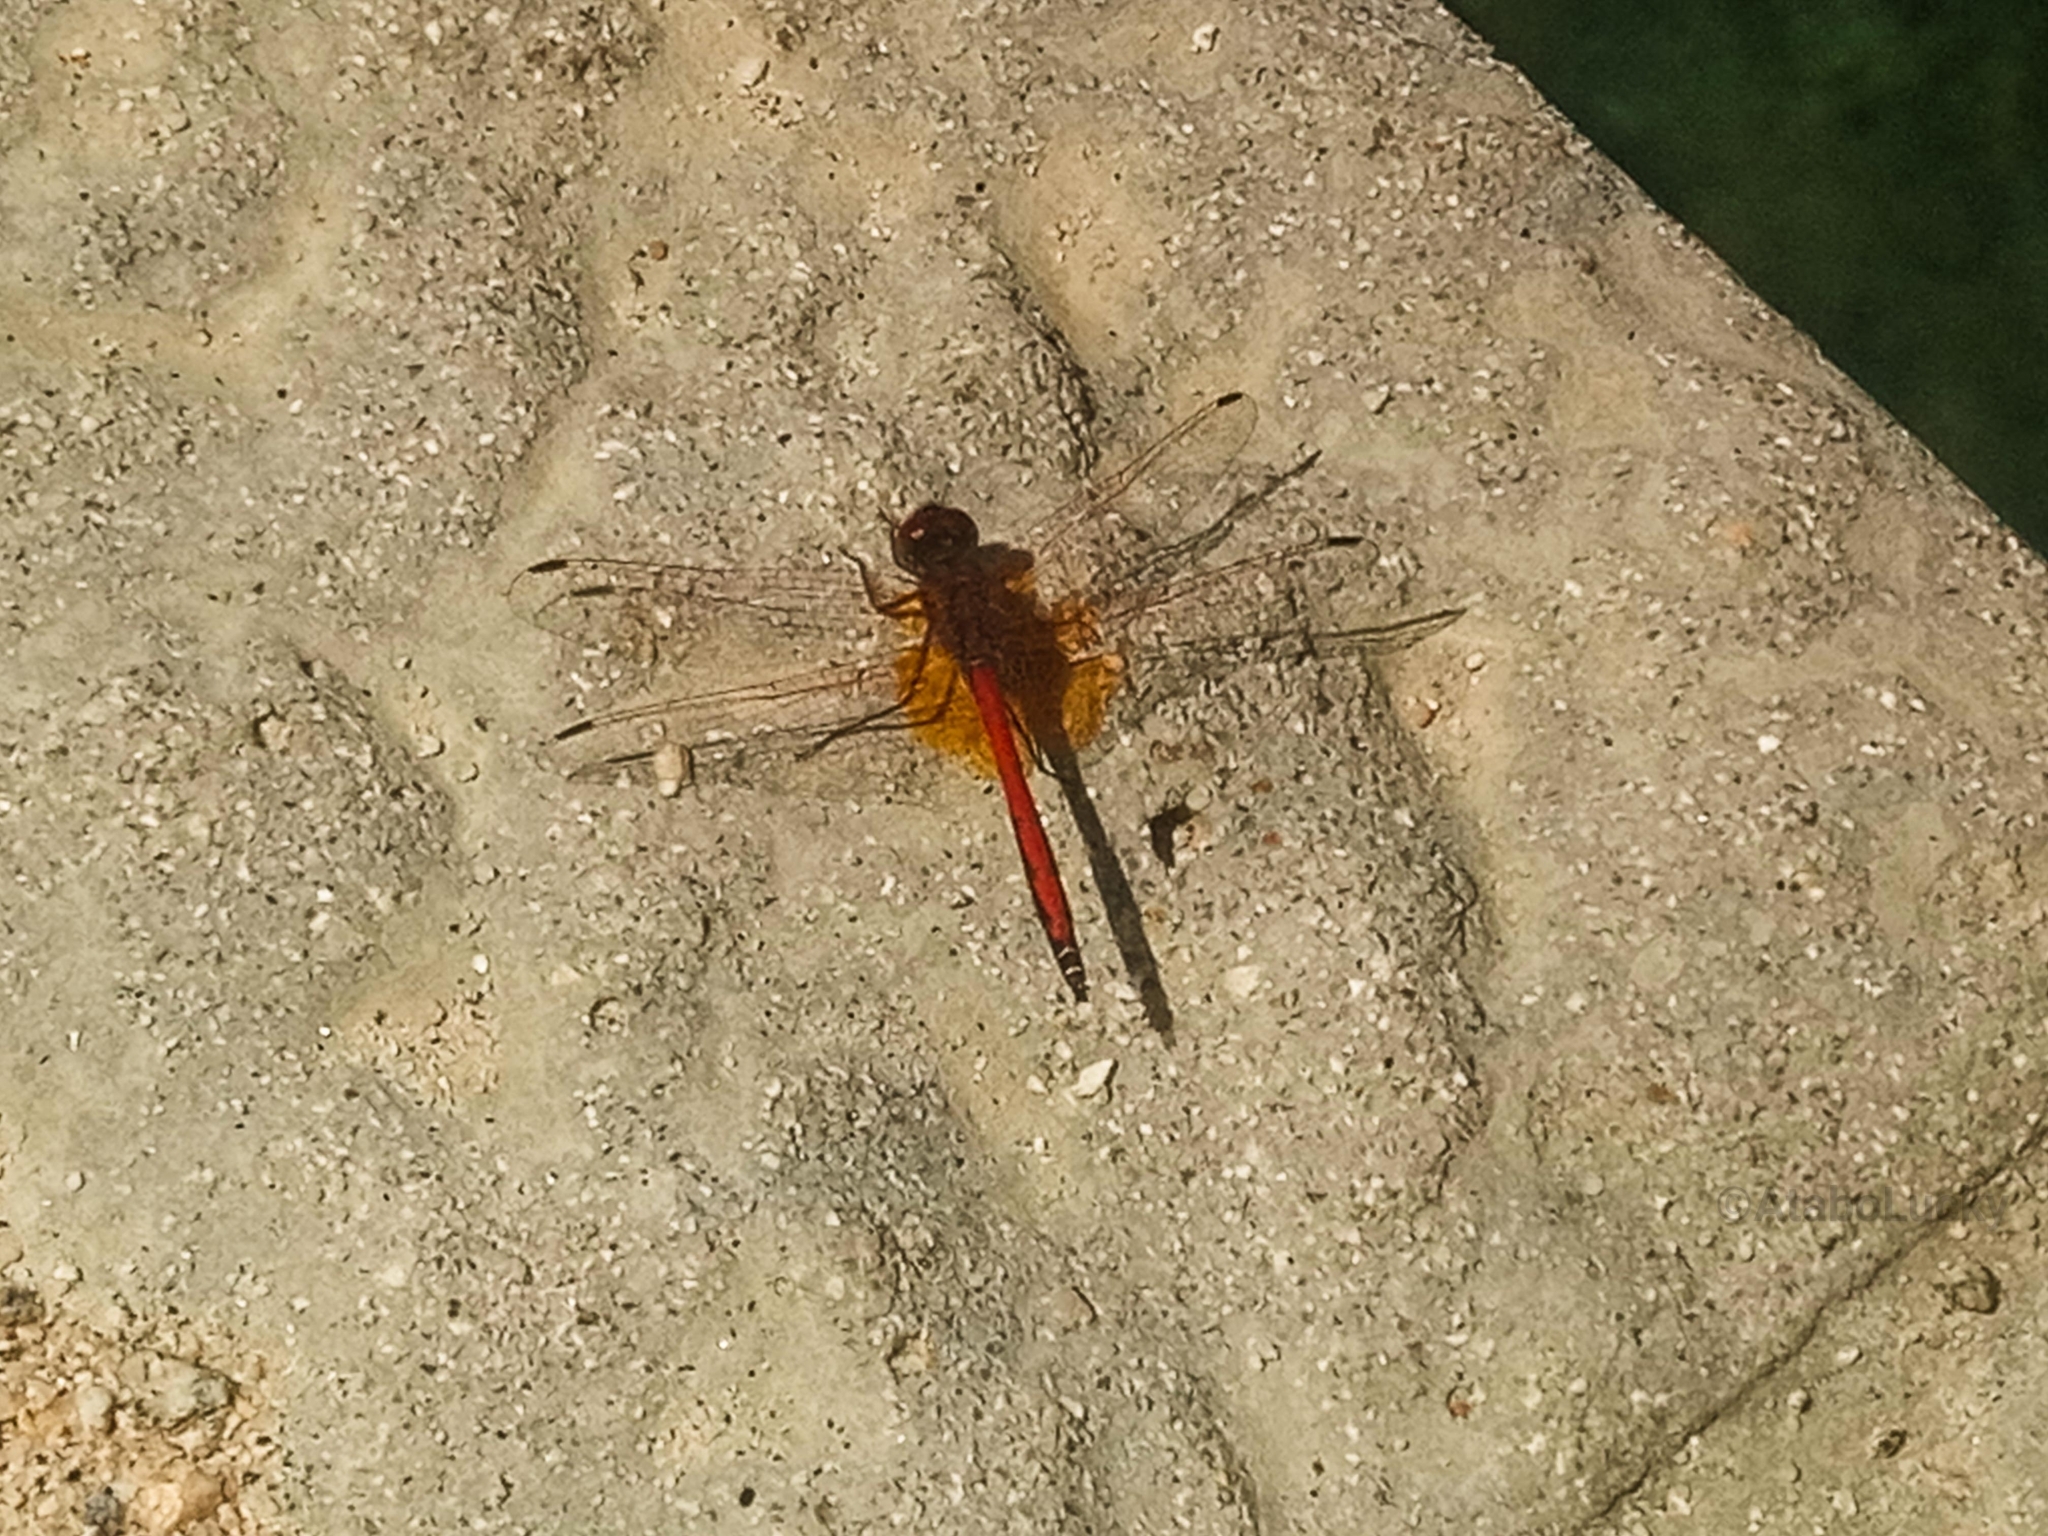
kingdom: Animalia
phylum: Arthropoda
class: Insecta
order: Odonata
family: Libellulidae
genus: Trithemis
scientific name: Trithemis kirbyi
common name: Kirby's dropwing
